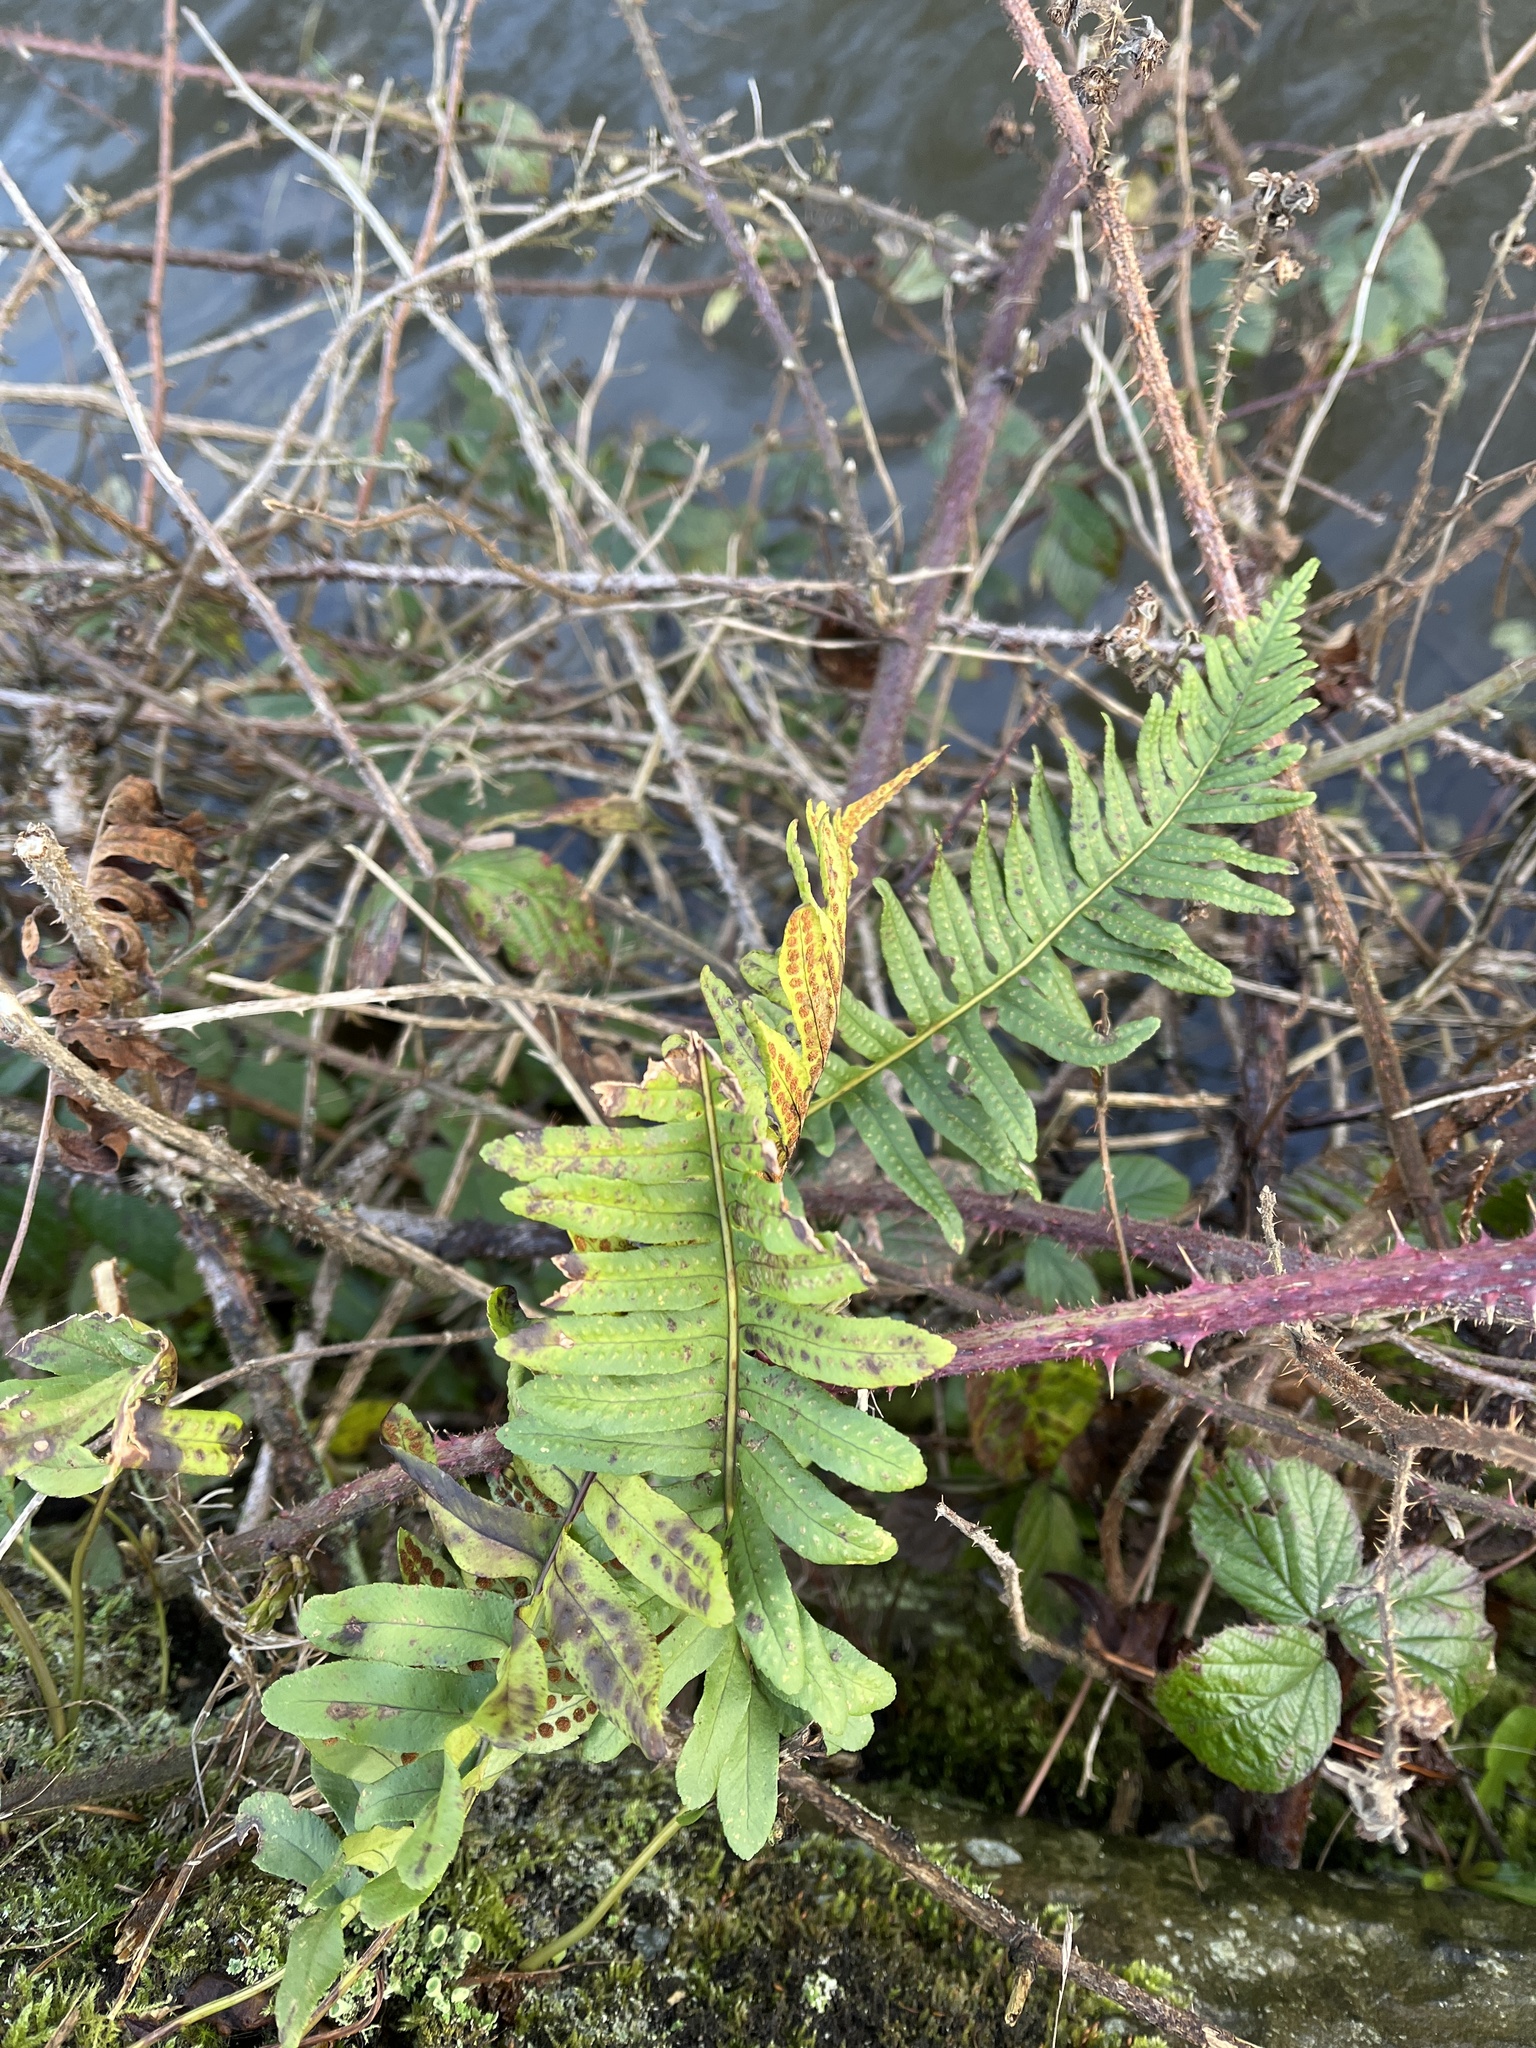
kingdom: Plantae
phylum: Tracheophyta
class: Polypodiopsida
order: Polypodiales
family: Polypodiaceae
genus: Polypodium
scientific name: Polypodium
